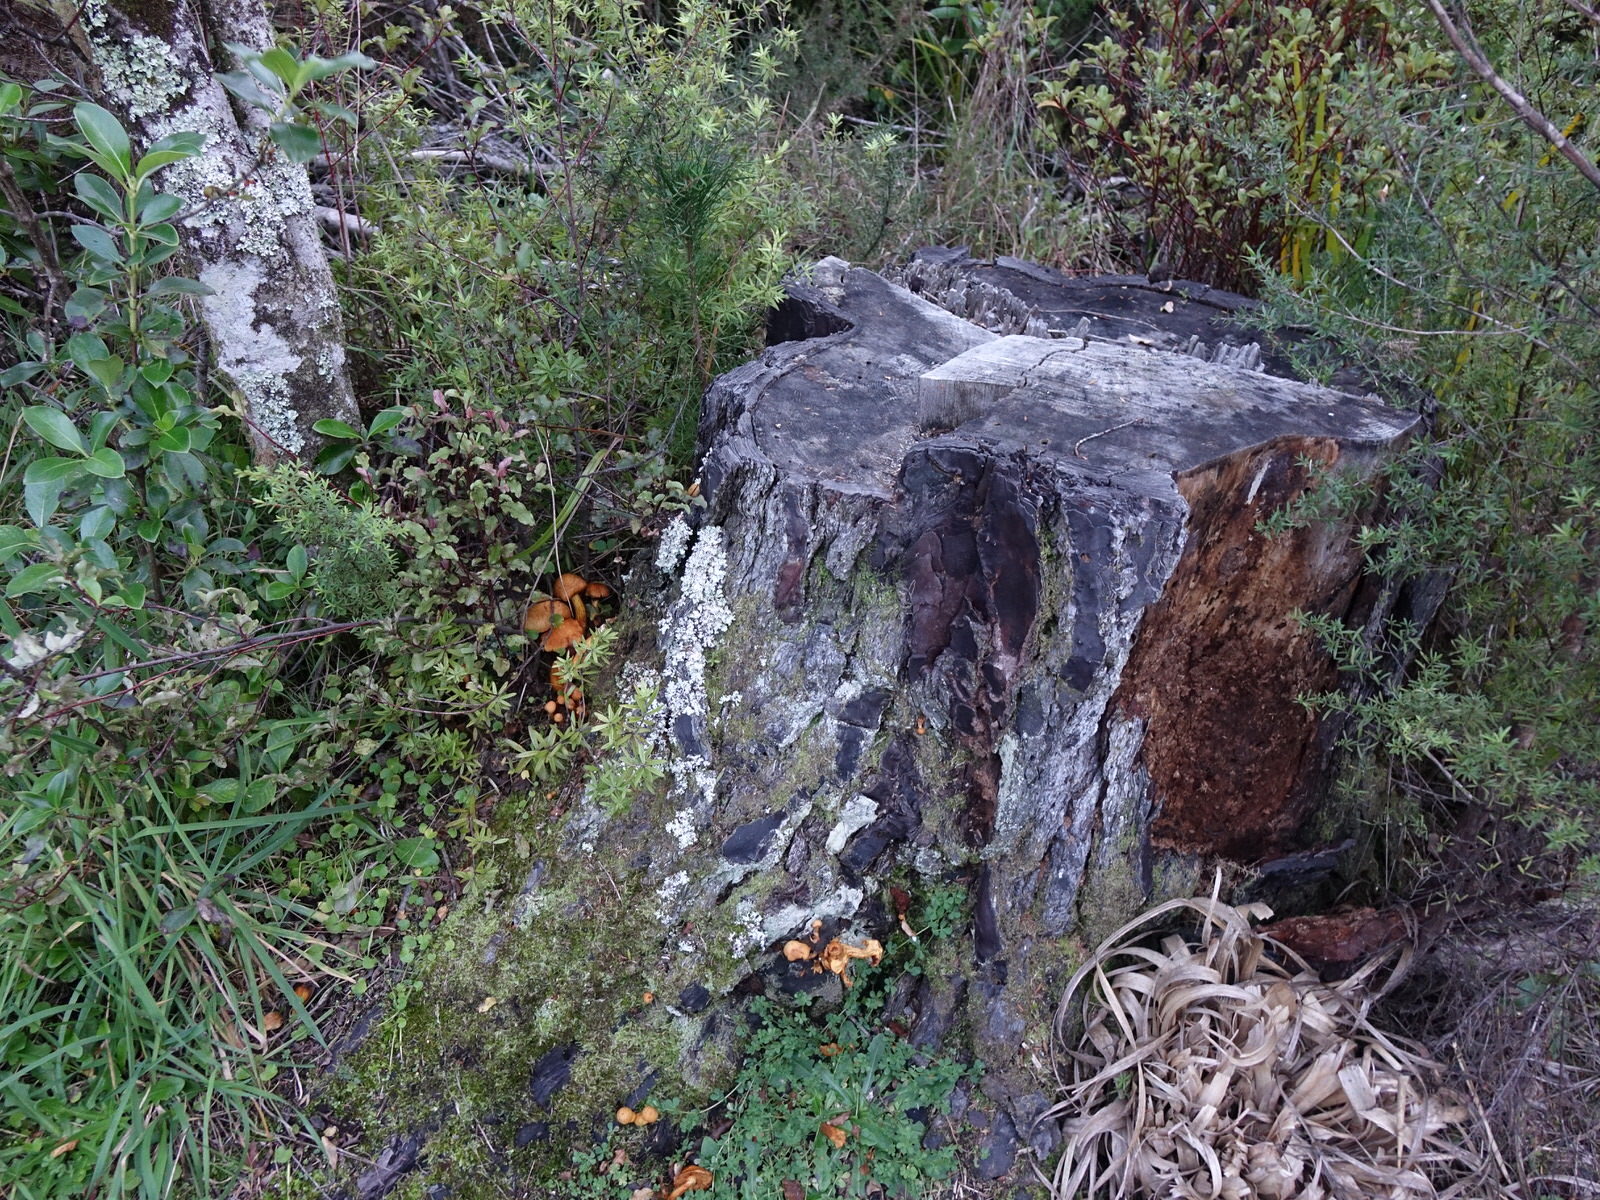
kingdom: Fungi
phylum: Basidiomycota
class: Agaricomycetes
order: Agaricales
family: Hymenogastraceae
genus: Gymnopilus
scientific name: Gymnopilus junonius
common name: Spectacular rustgill
